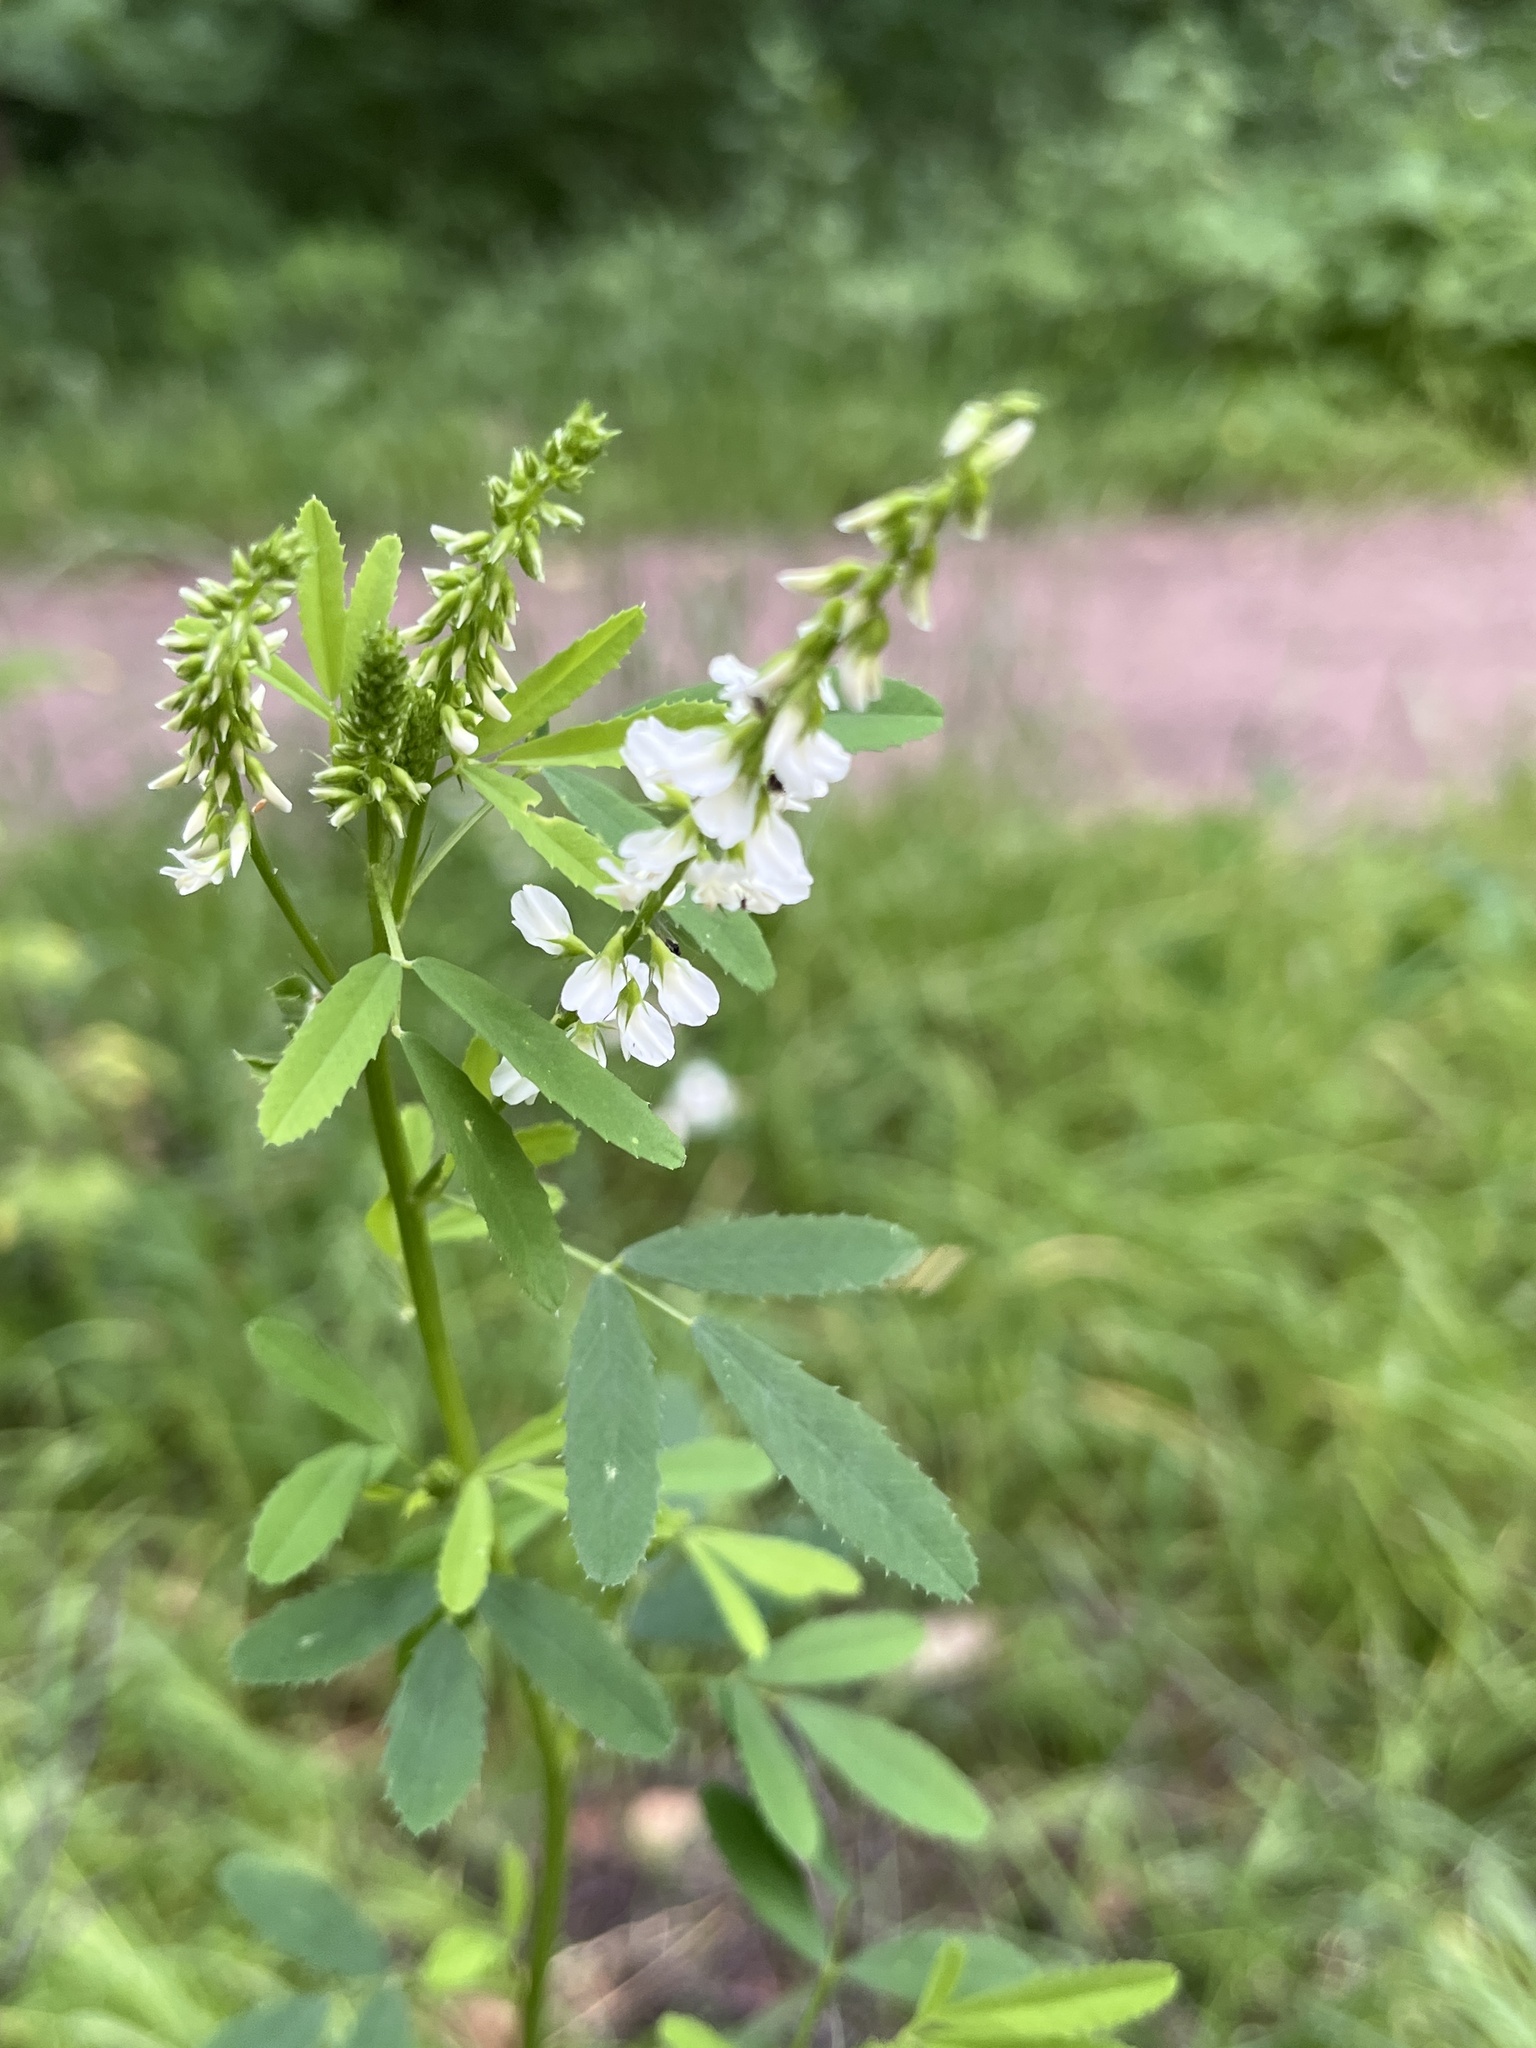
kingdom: Plantae
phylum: Tracheophyta
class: Magnoliopsida
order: Fabales
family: Fabaceae
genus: Melilotus
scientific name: Melilotus albus
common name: White melilot
